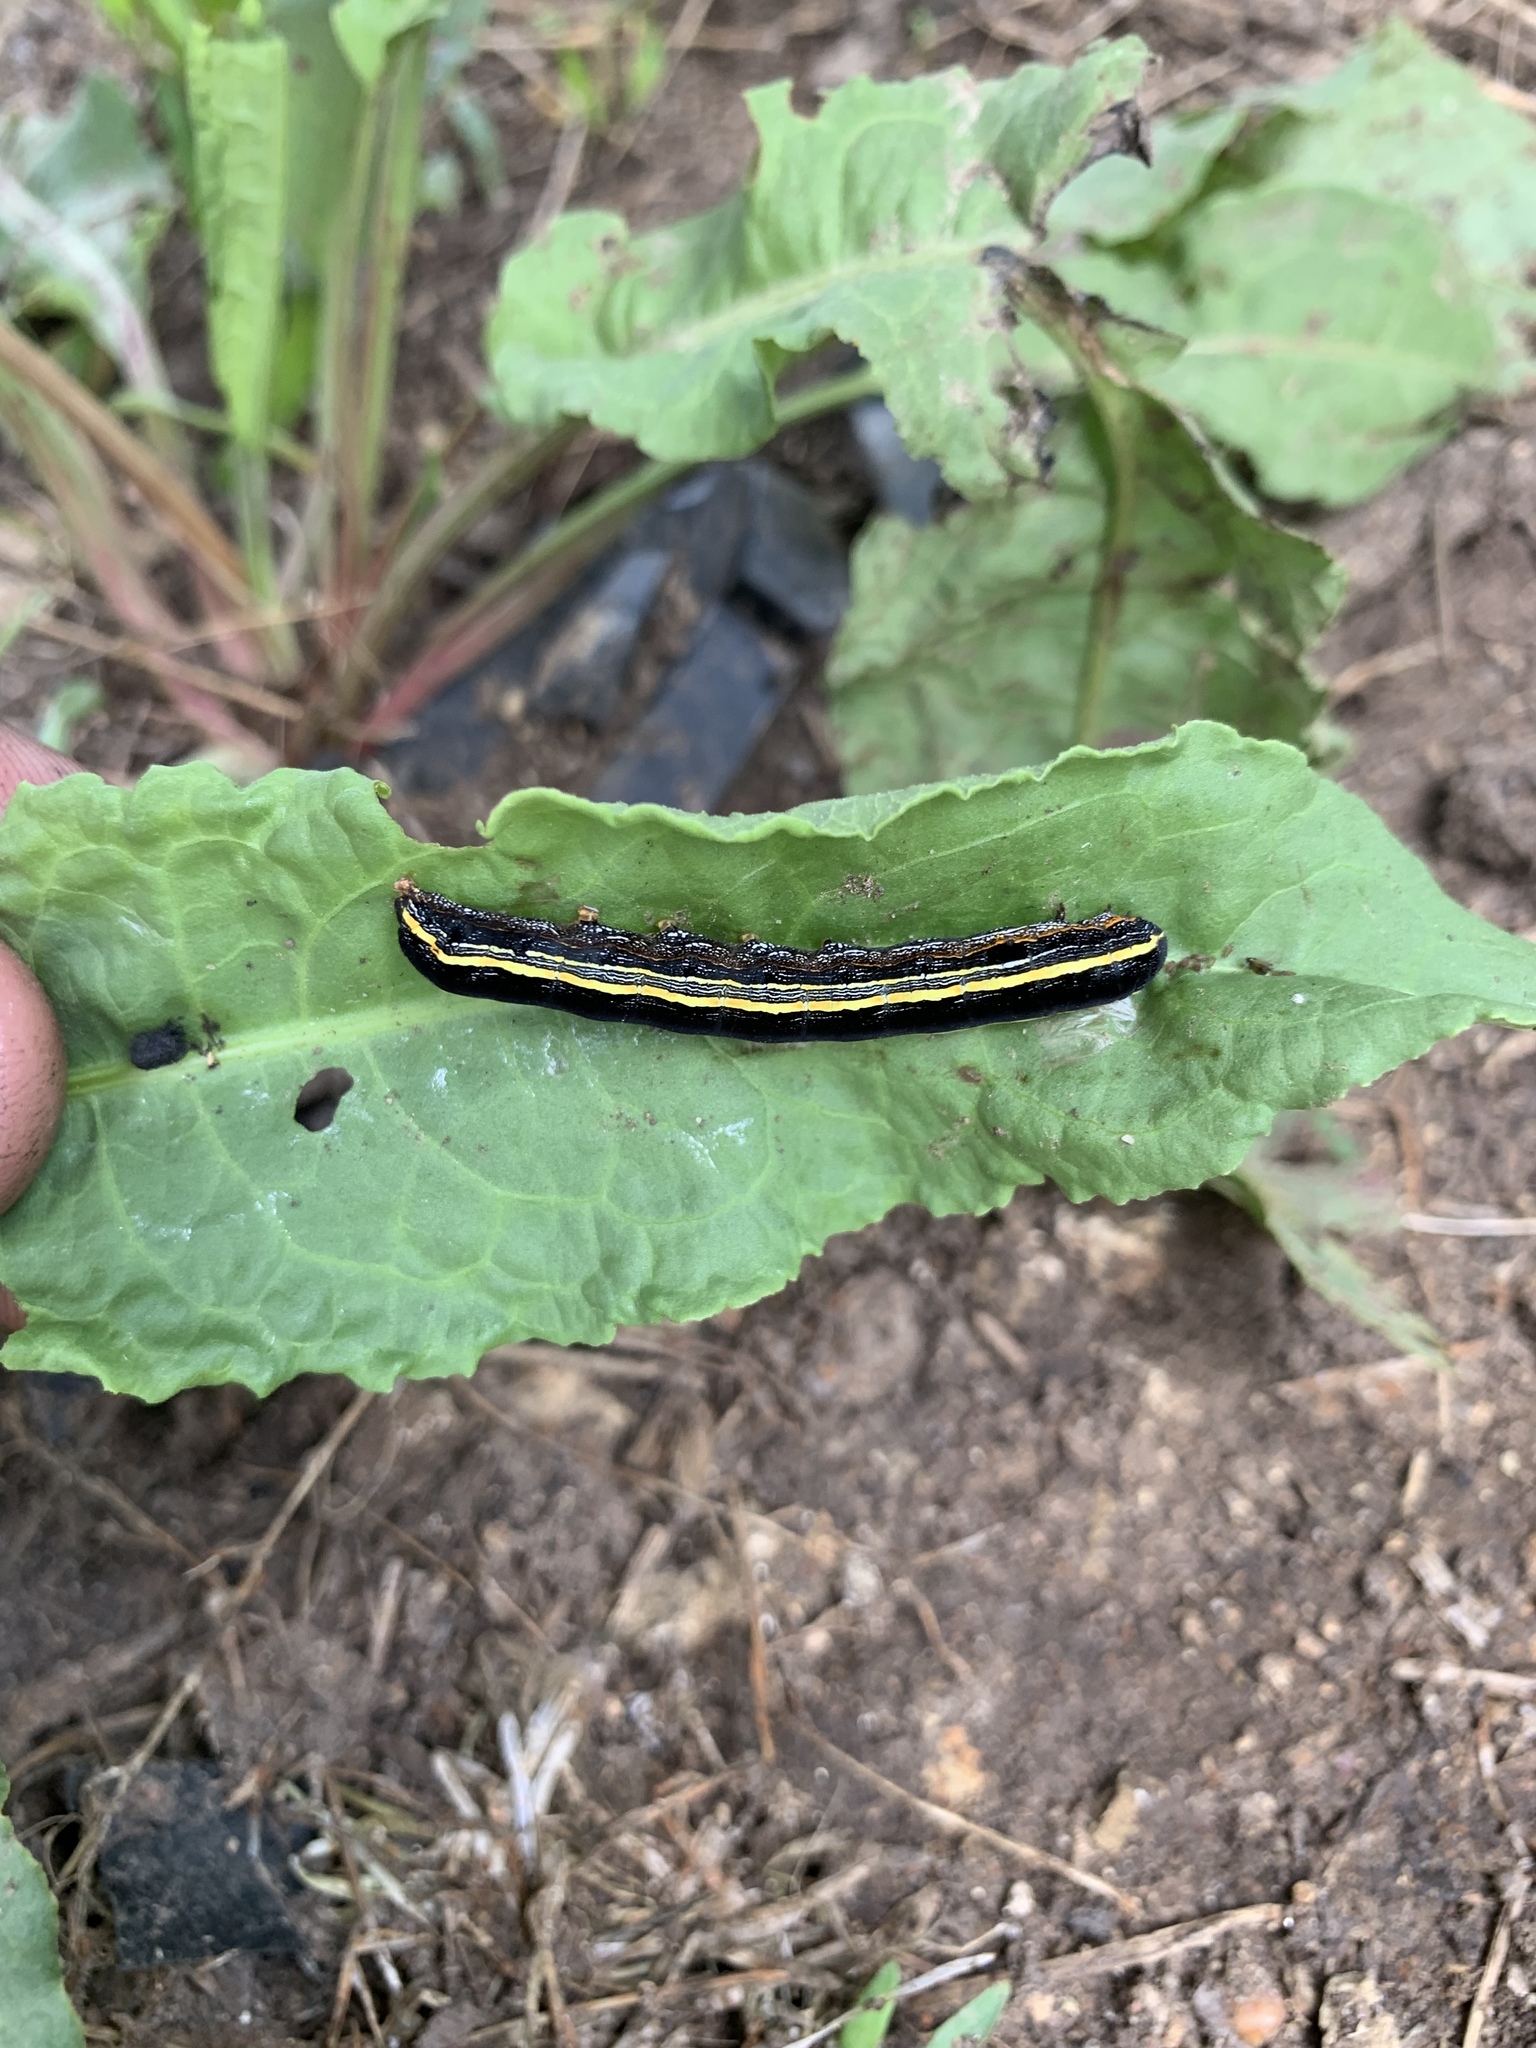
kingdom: Animalia
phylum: Arthropoda
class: Insecta
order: Lepidoptera
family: Noctuidae
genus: Spodoptera
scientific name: Spodoptera ornithogalli
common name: Yellow-striped armyworm
